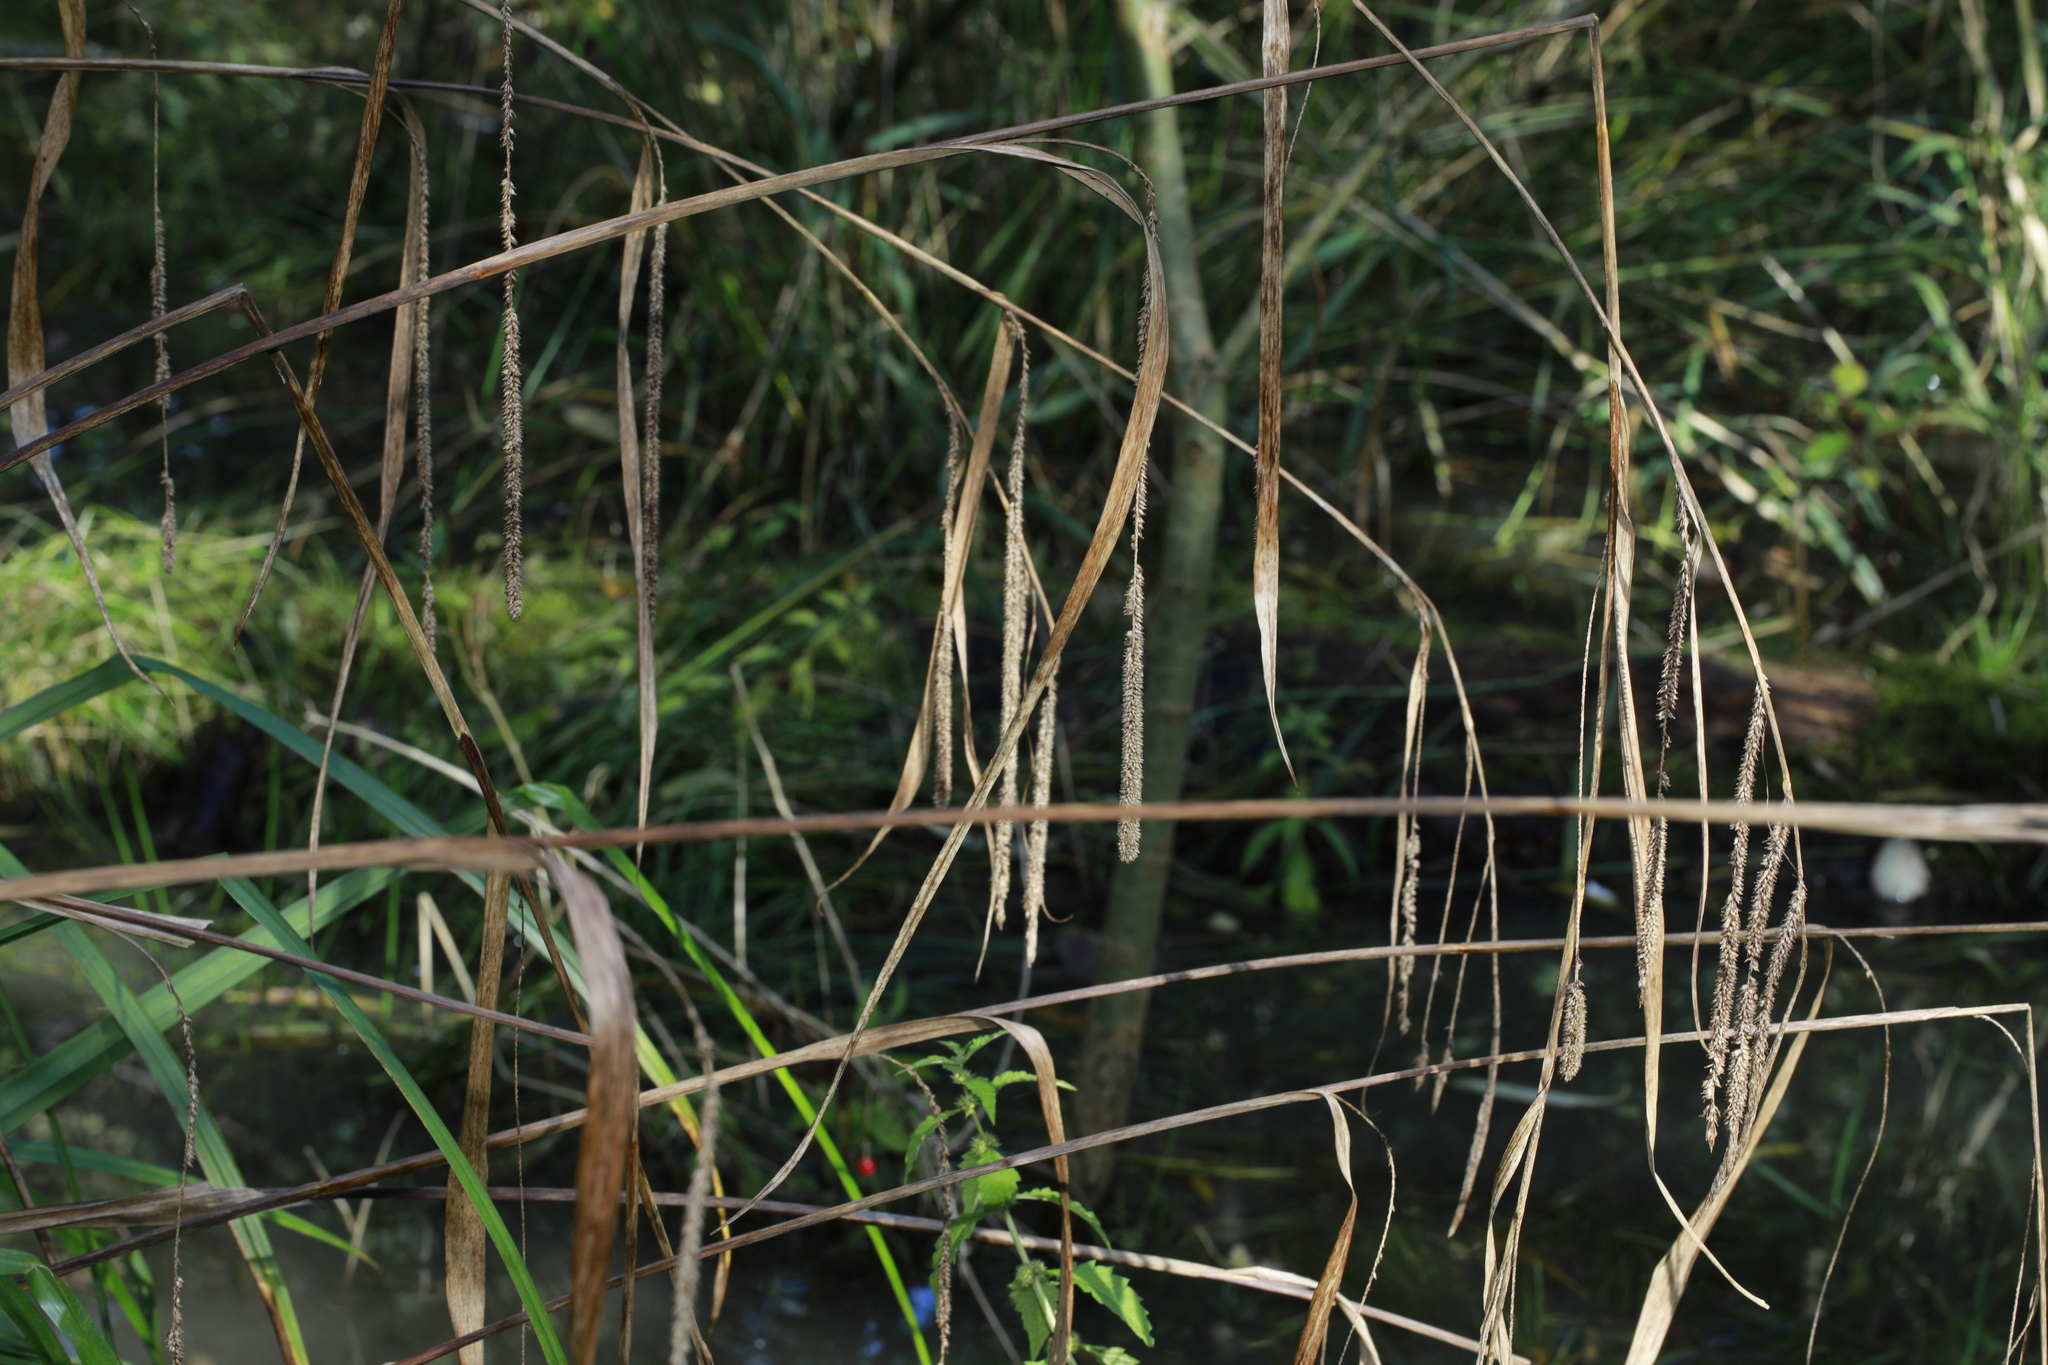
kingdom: Plantae
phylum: Tracheophyta
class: Liliopsida
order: Poales
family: Cyperaceae
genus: Carex
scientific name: Carex pendula
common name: Pendulous sedge
